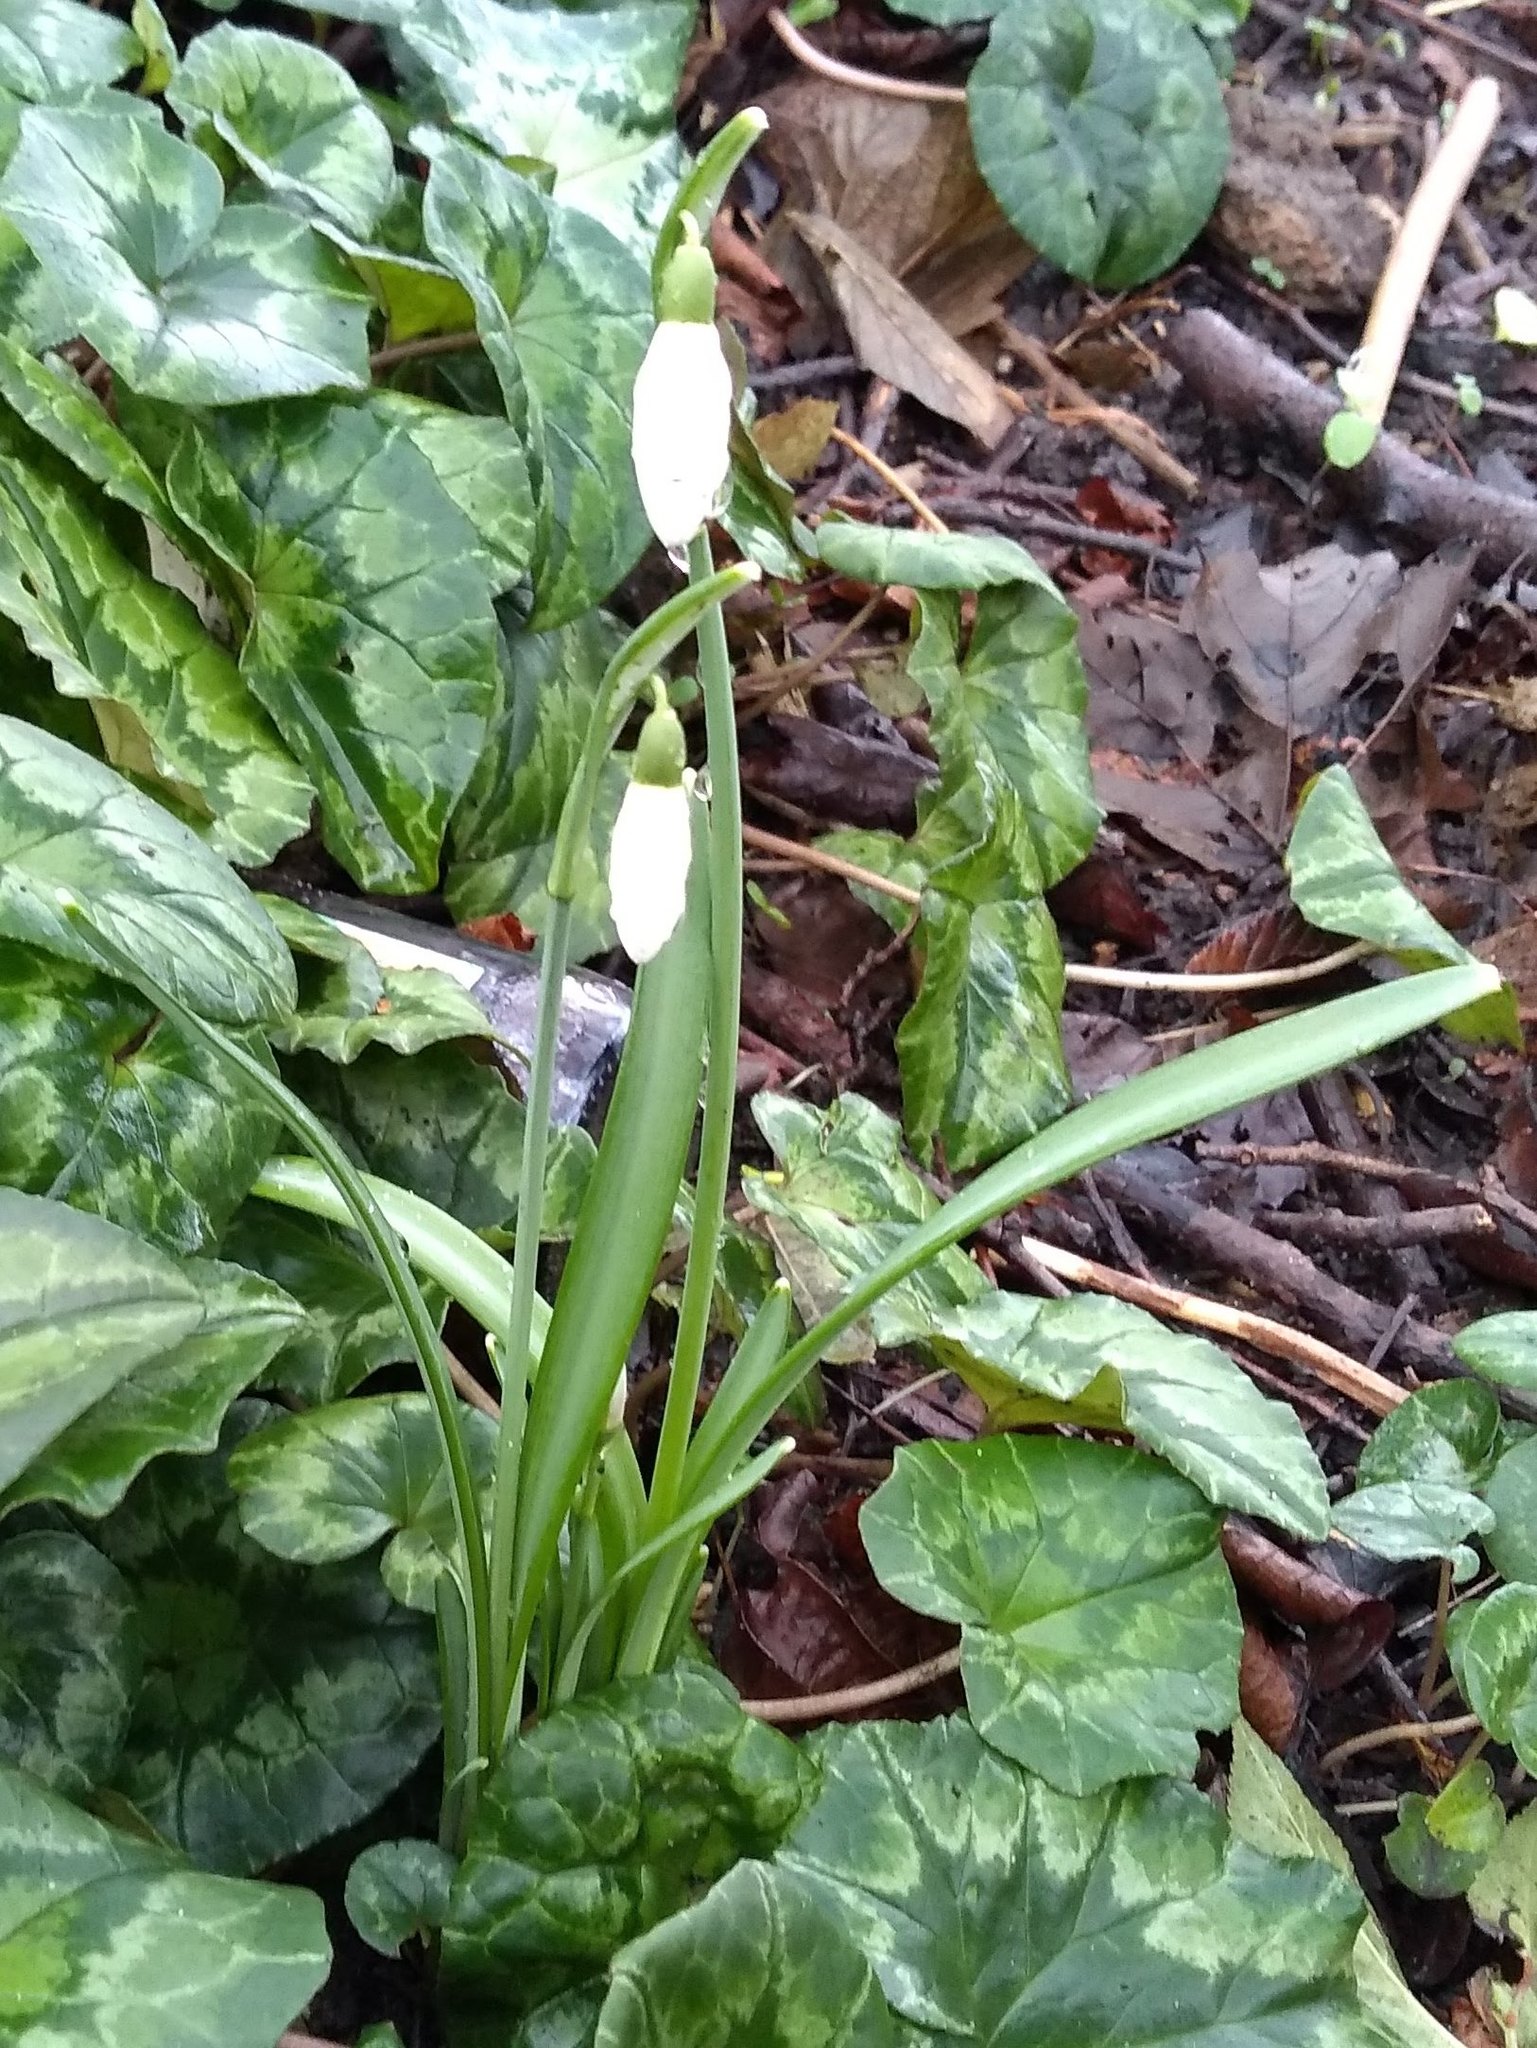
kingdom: Plantae
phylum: Tracheophyta
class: Liliopsida
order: Asparagales
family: Amaryllidaceae
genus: Galanthus
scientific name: Galanthus nivalis
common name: Snowdrop
